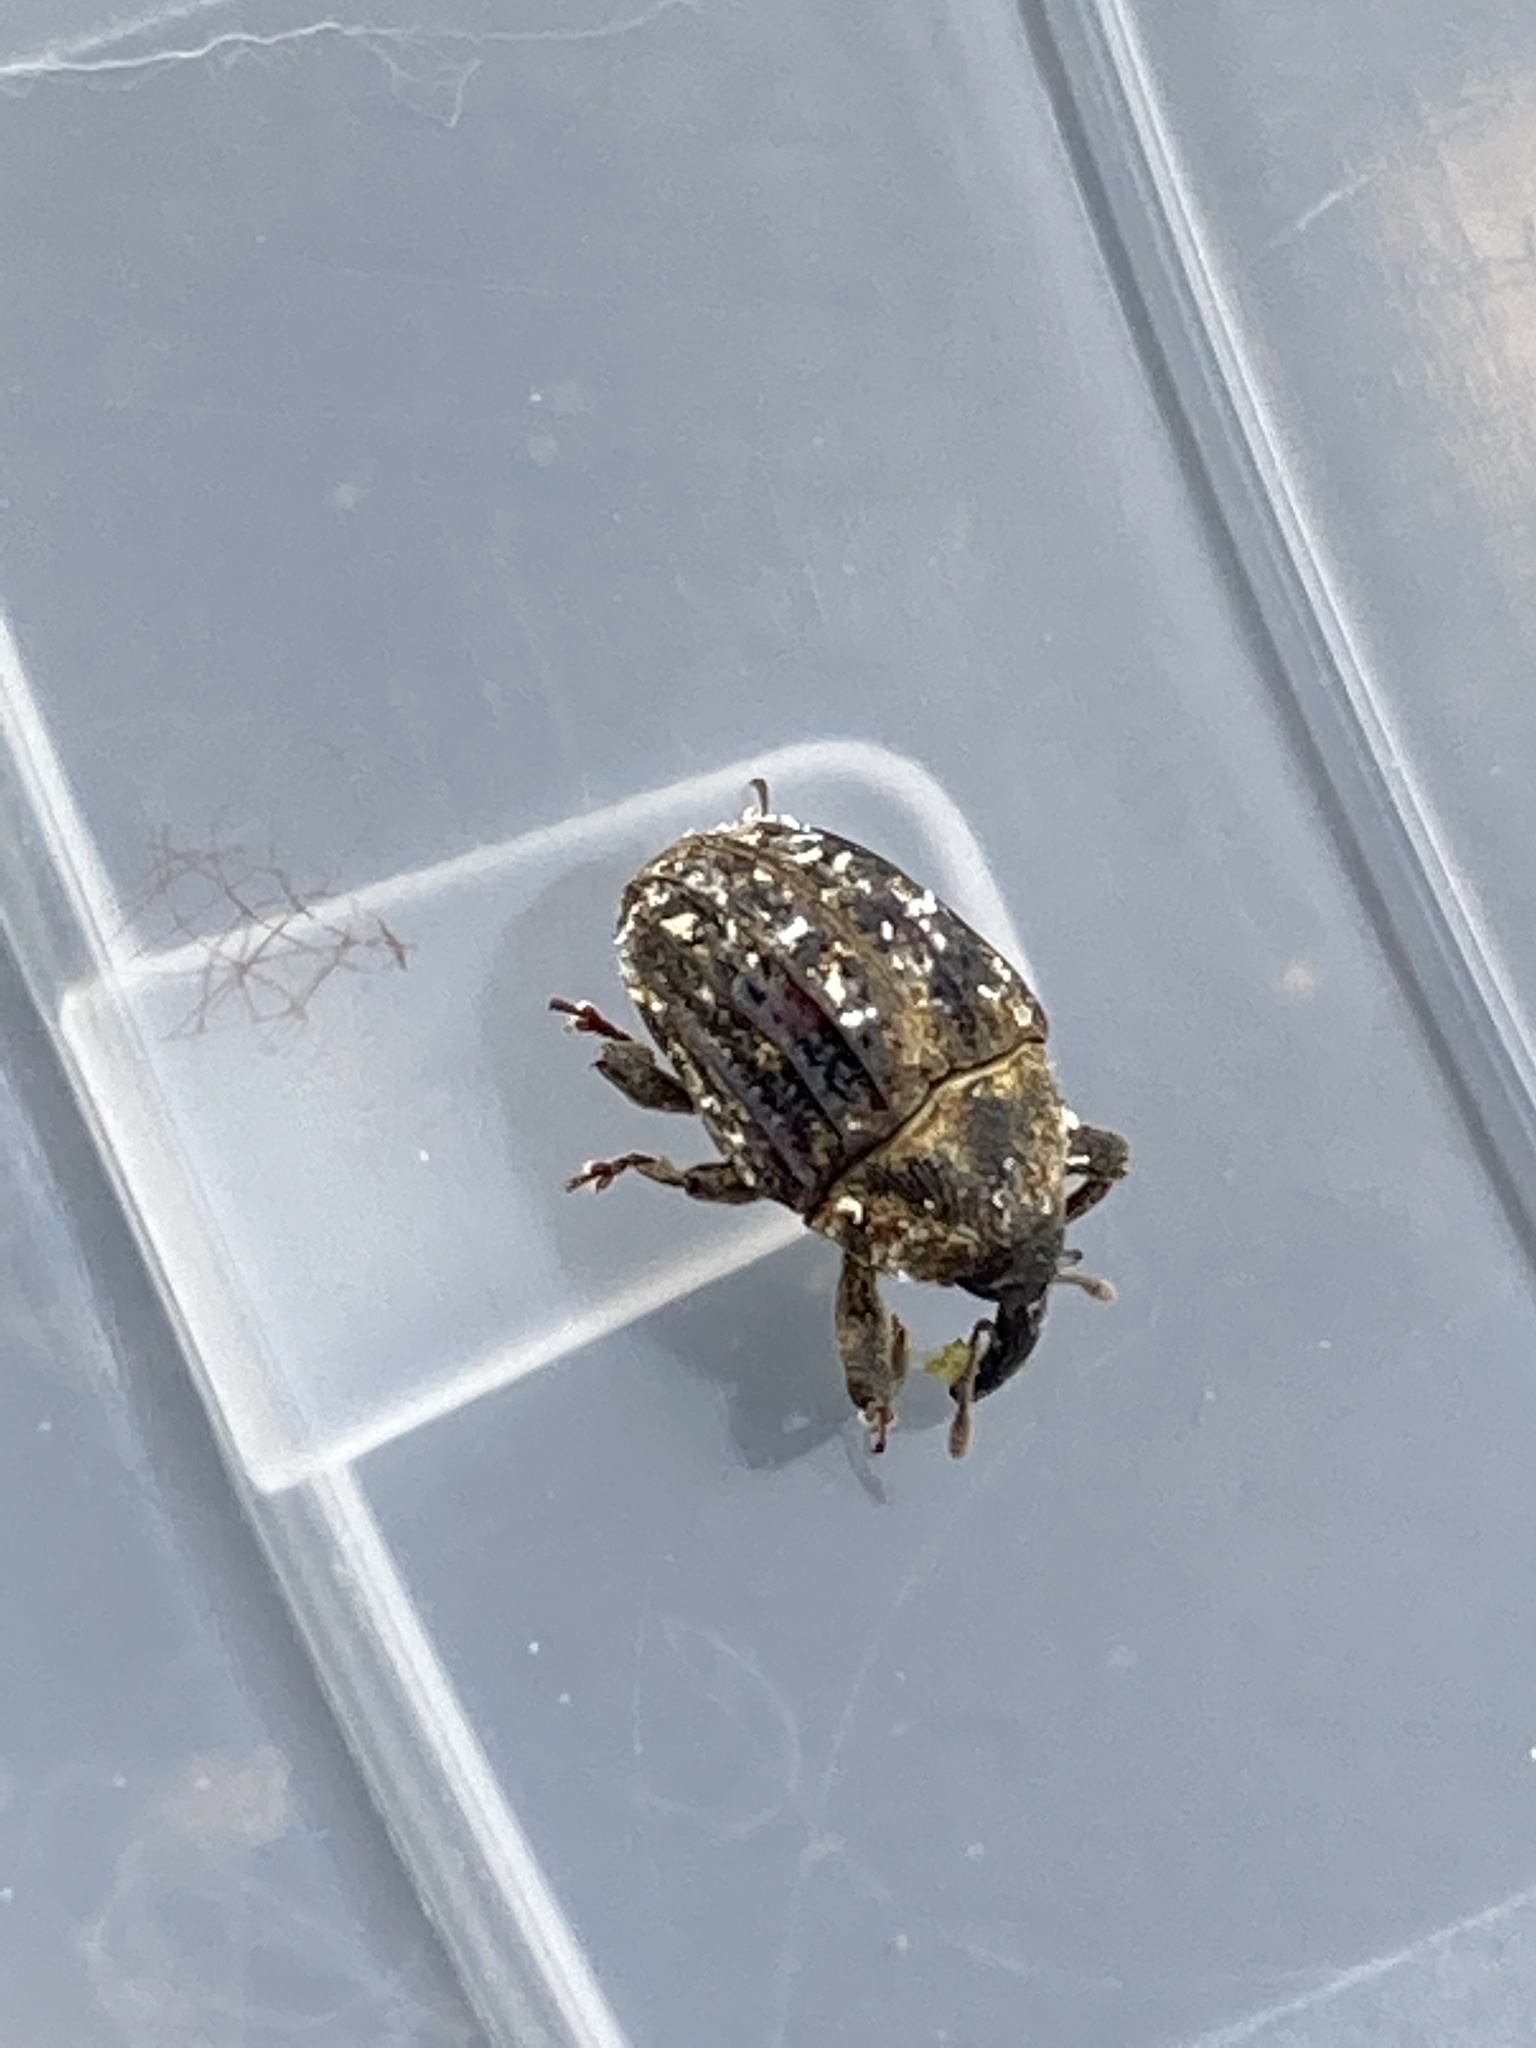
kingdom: Animalia
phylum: Arthropoda
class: Insecta
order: Coleoptera
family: Curculionidae
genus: Rhyssomatus
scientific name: Rhyssomatus lineaticollis
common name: Milkweed stem weevil
